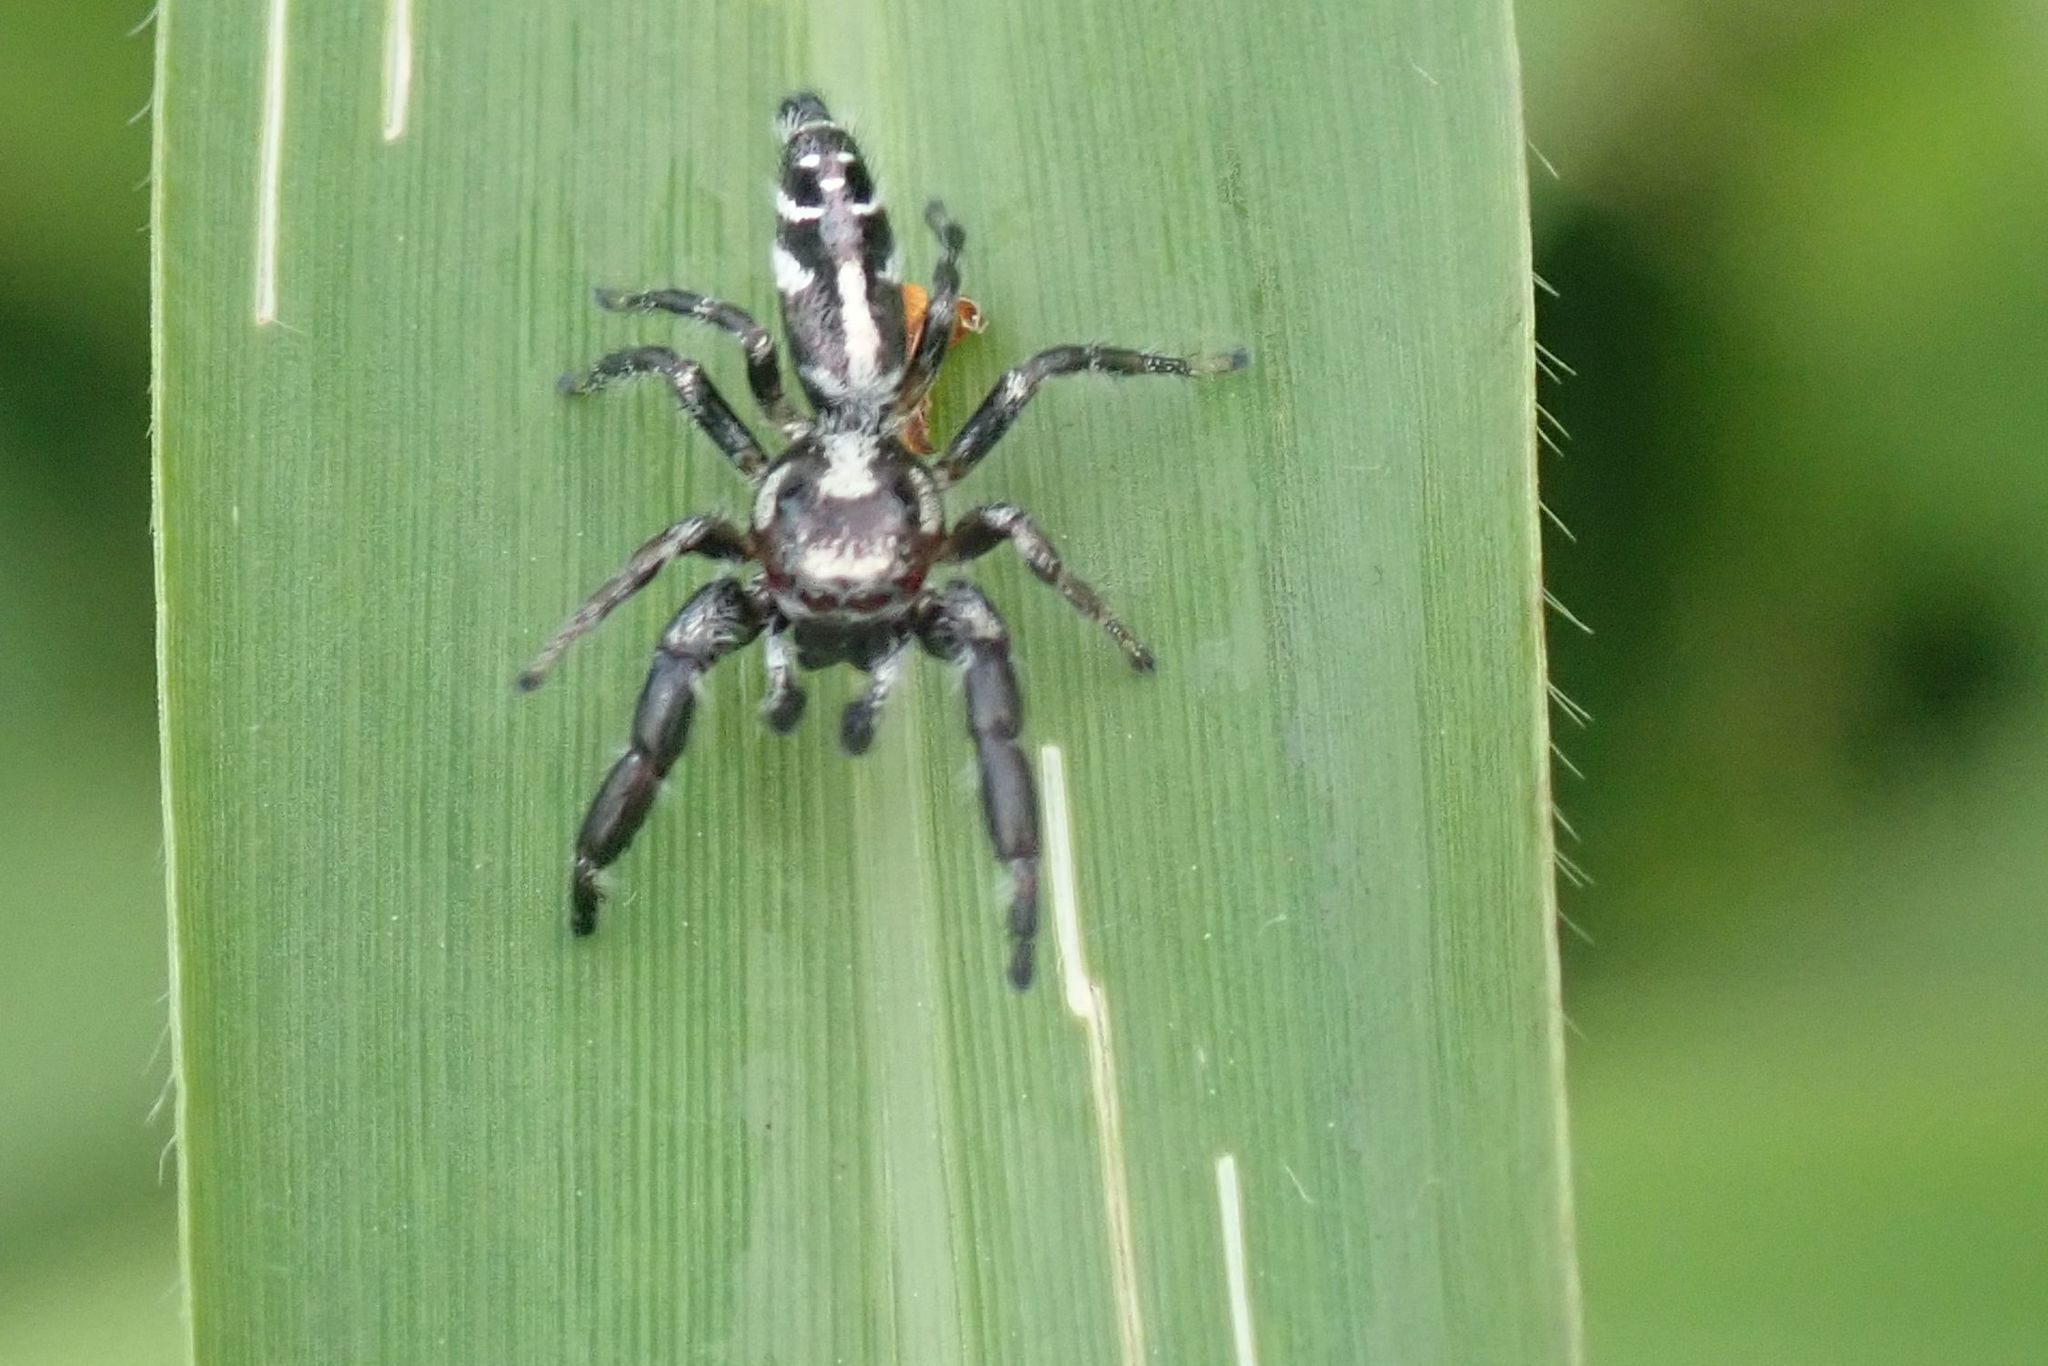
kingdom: Animalia
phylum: Arthropoda
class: Arachnida
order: Araneae
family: Salticidae
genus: Thyene
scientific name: Thyene semiargentea
